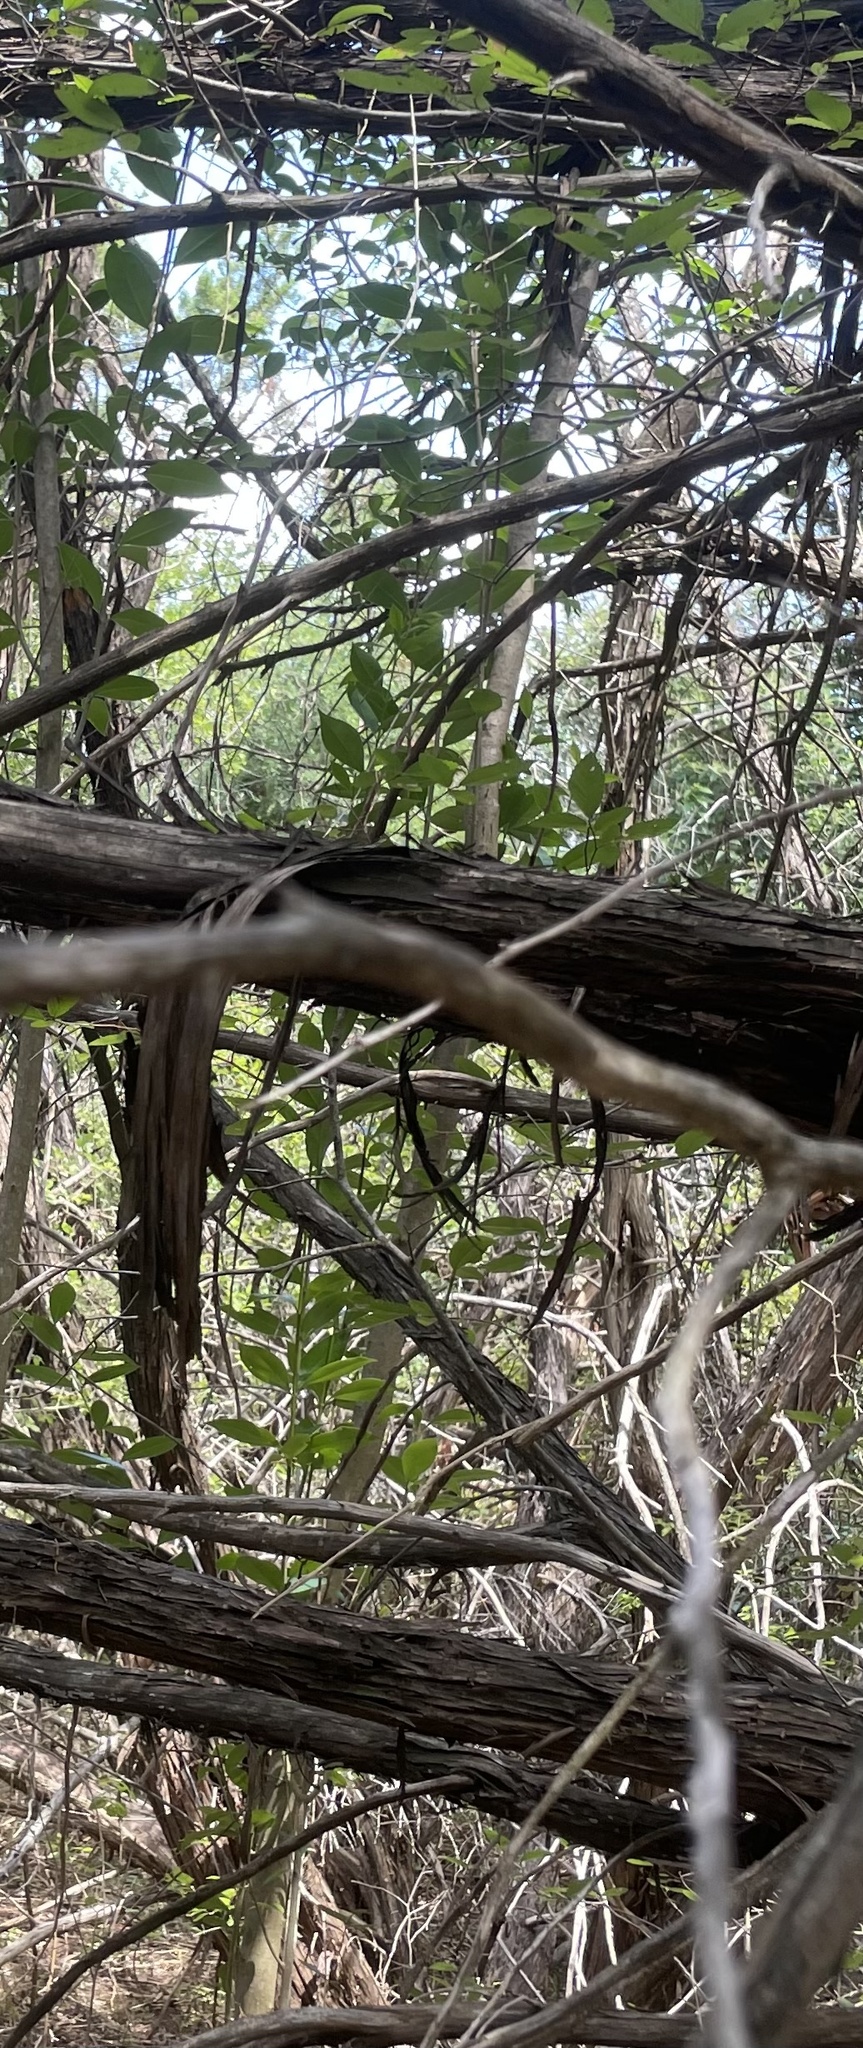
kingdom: Plantae
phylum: Tracheophyta
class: Magnoliopsida
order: Lamiales
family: Oleaceae
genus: Ligustrum
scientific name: Ligustrum lucidum
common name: Glossy privet
